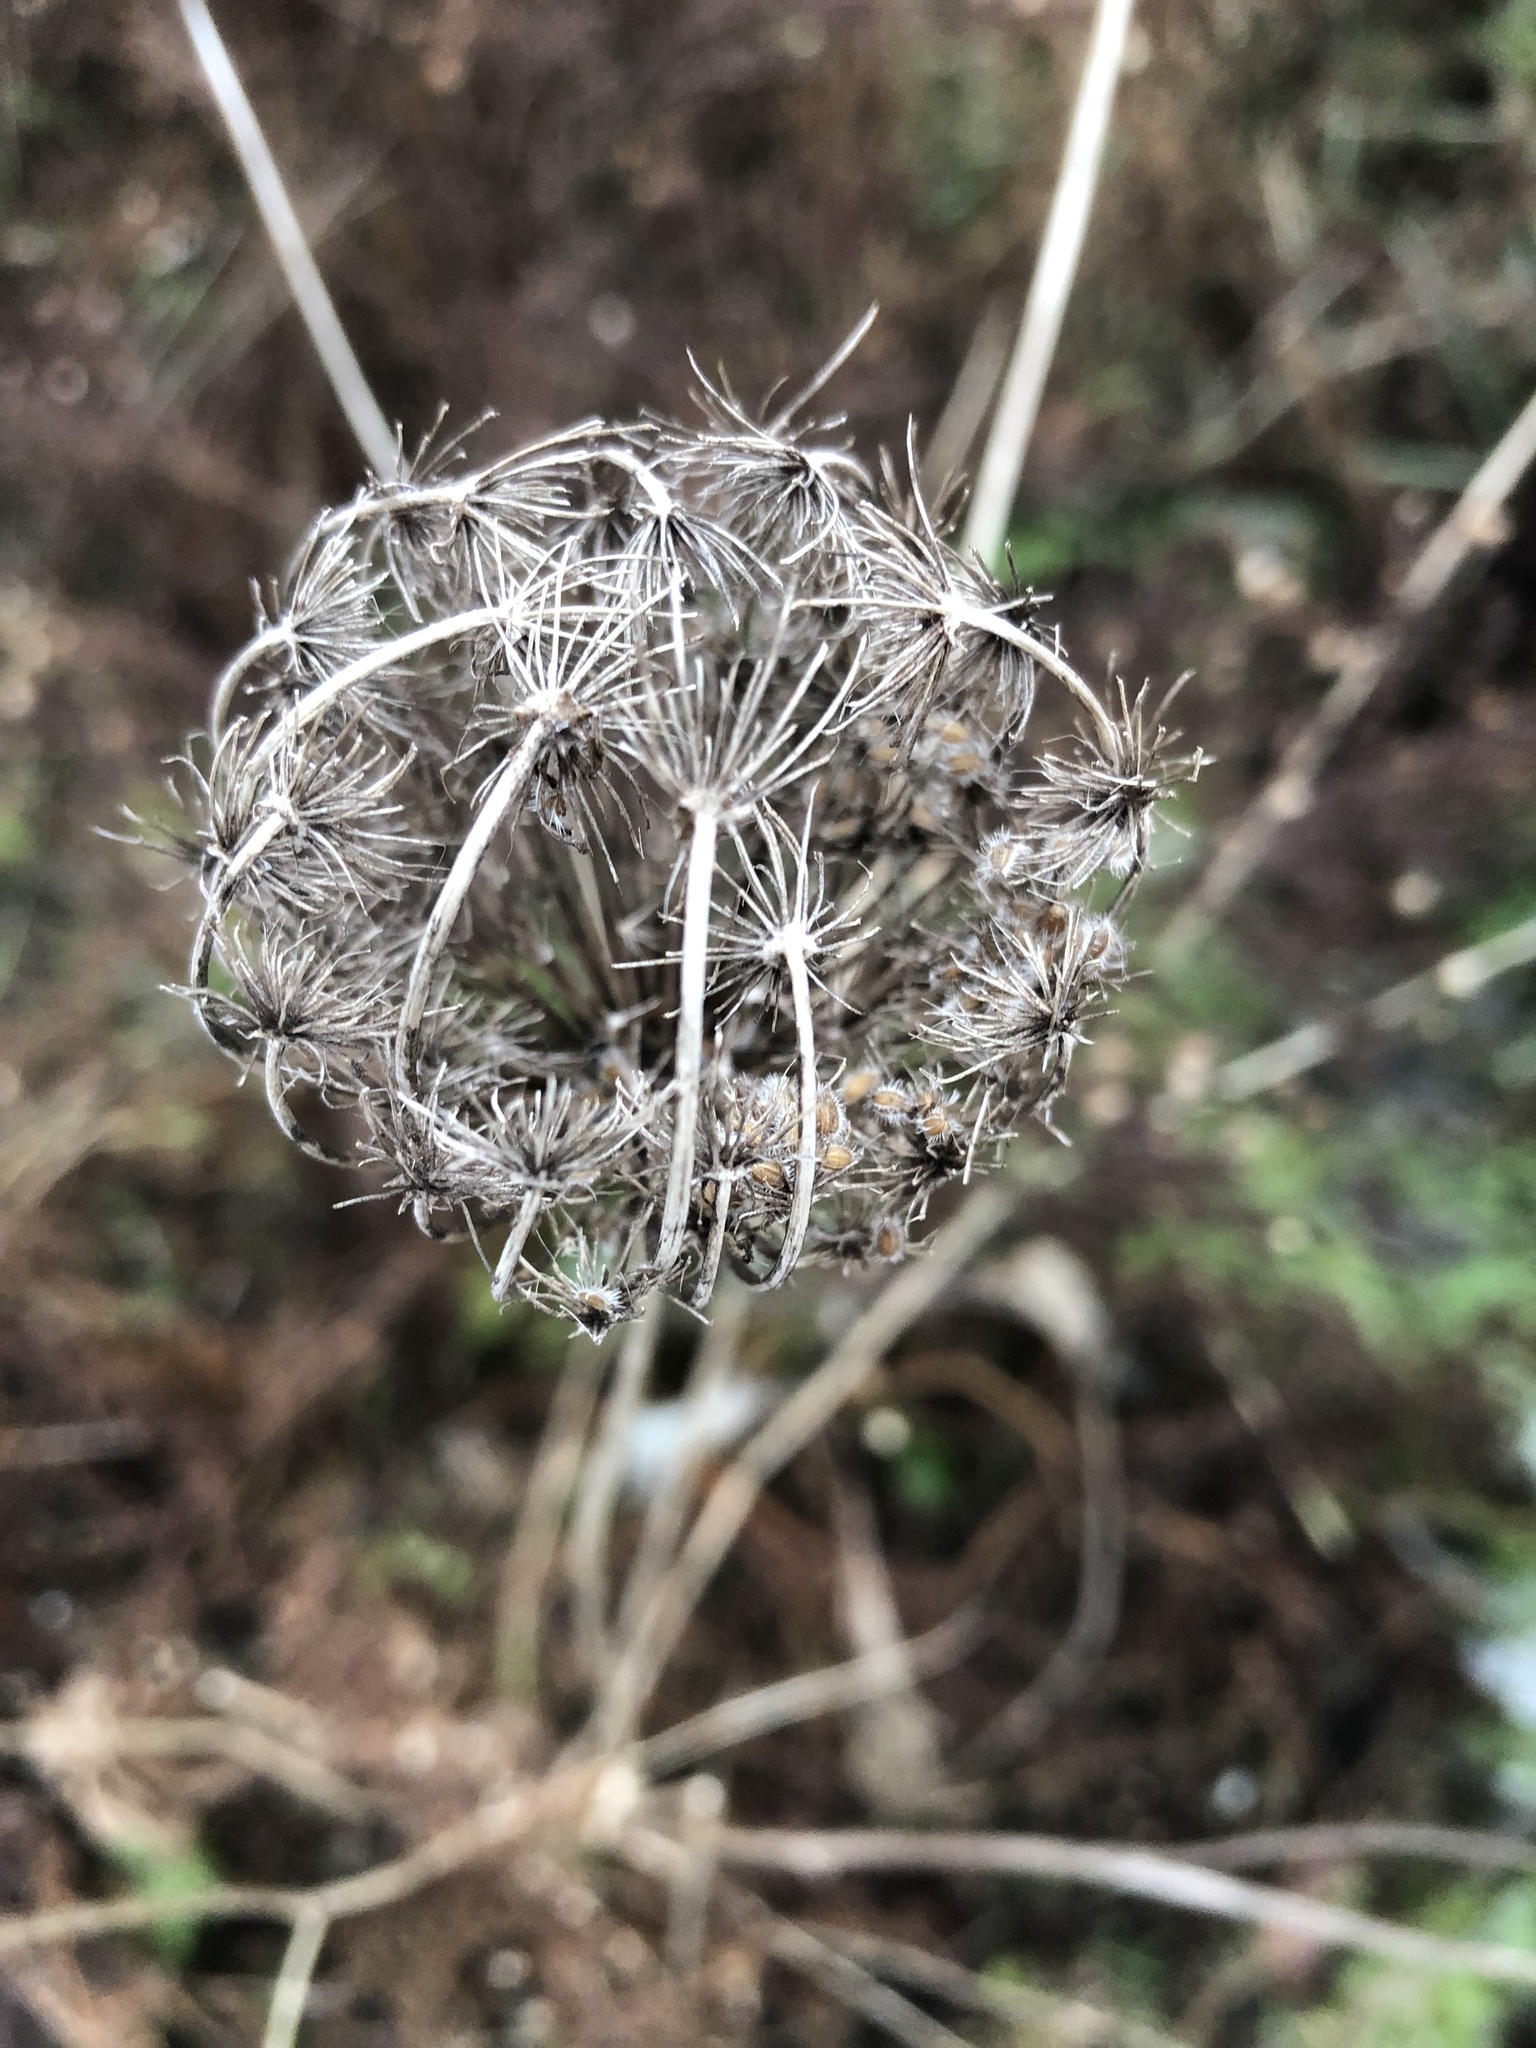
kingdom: Plantae
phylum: Tracheophyta
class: Magnoliopsida
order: Apiales
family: Apiaceae
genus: Daucus
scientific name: Daucus carota
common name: Wild carrot
